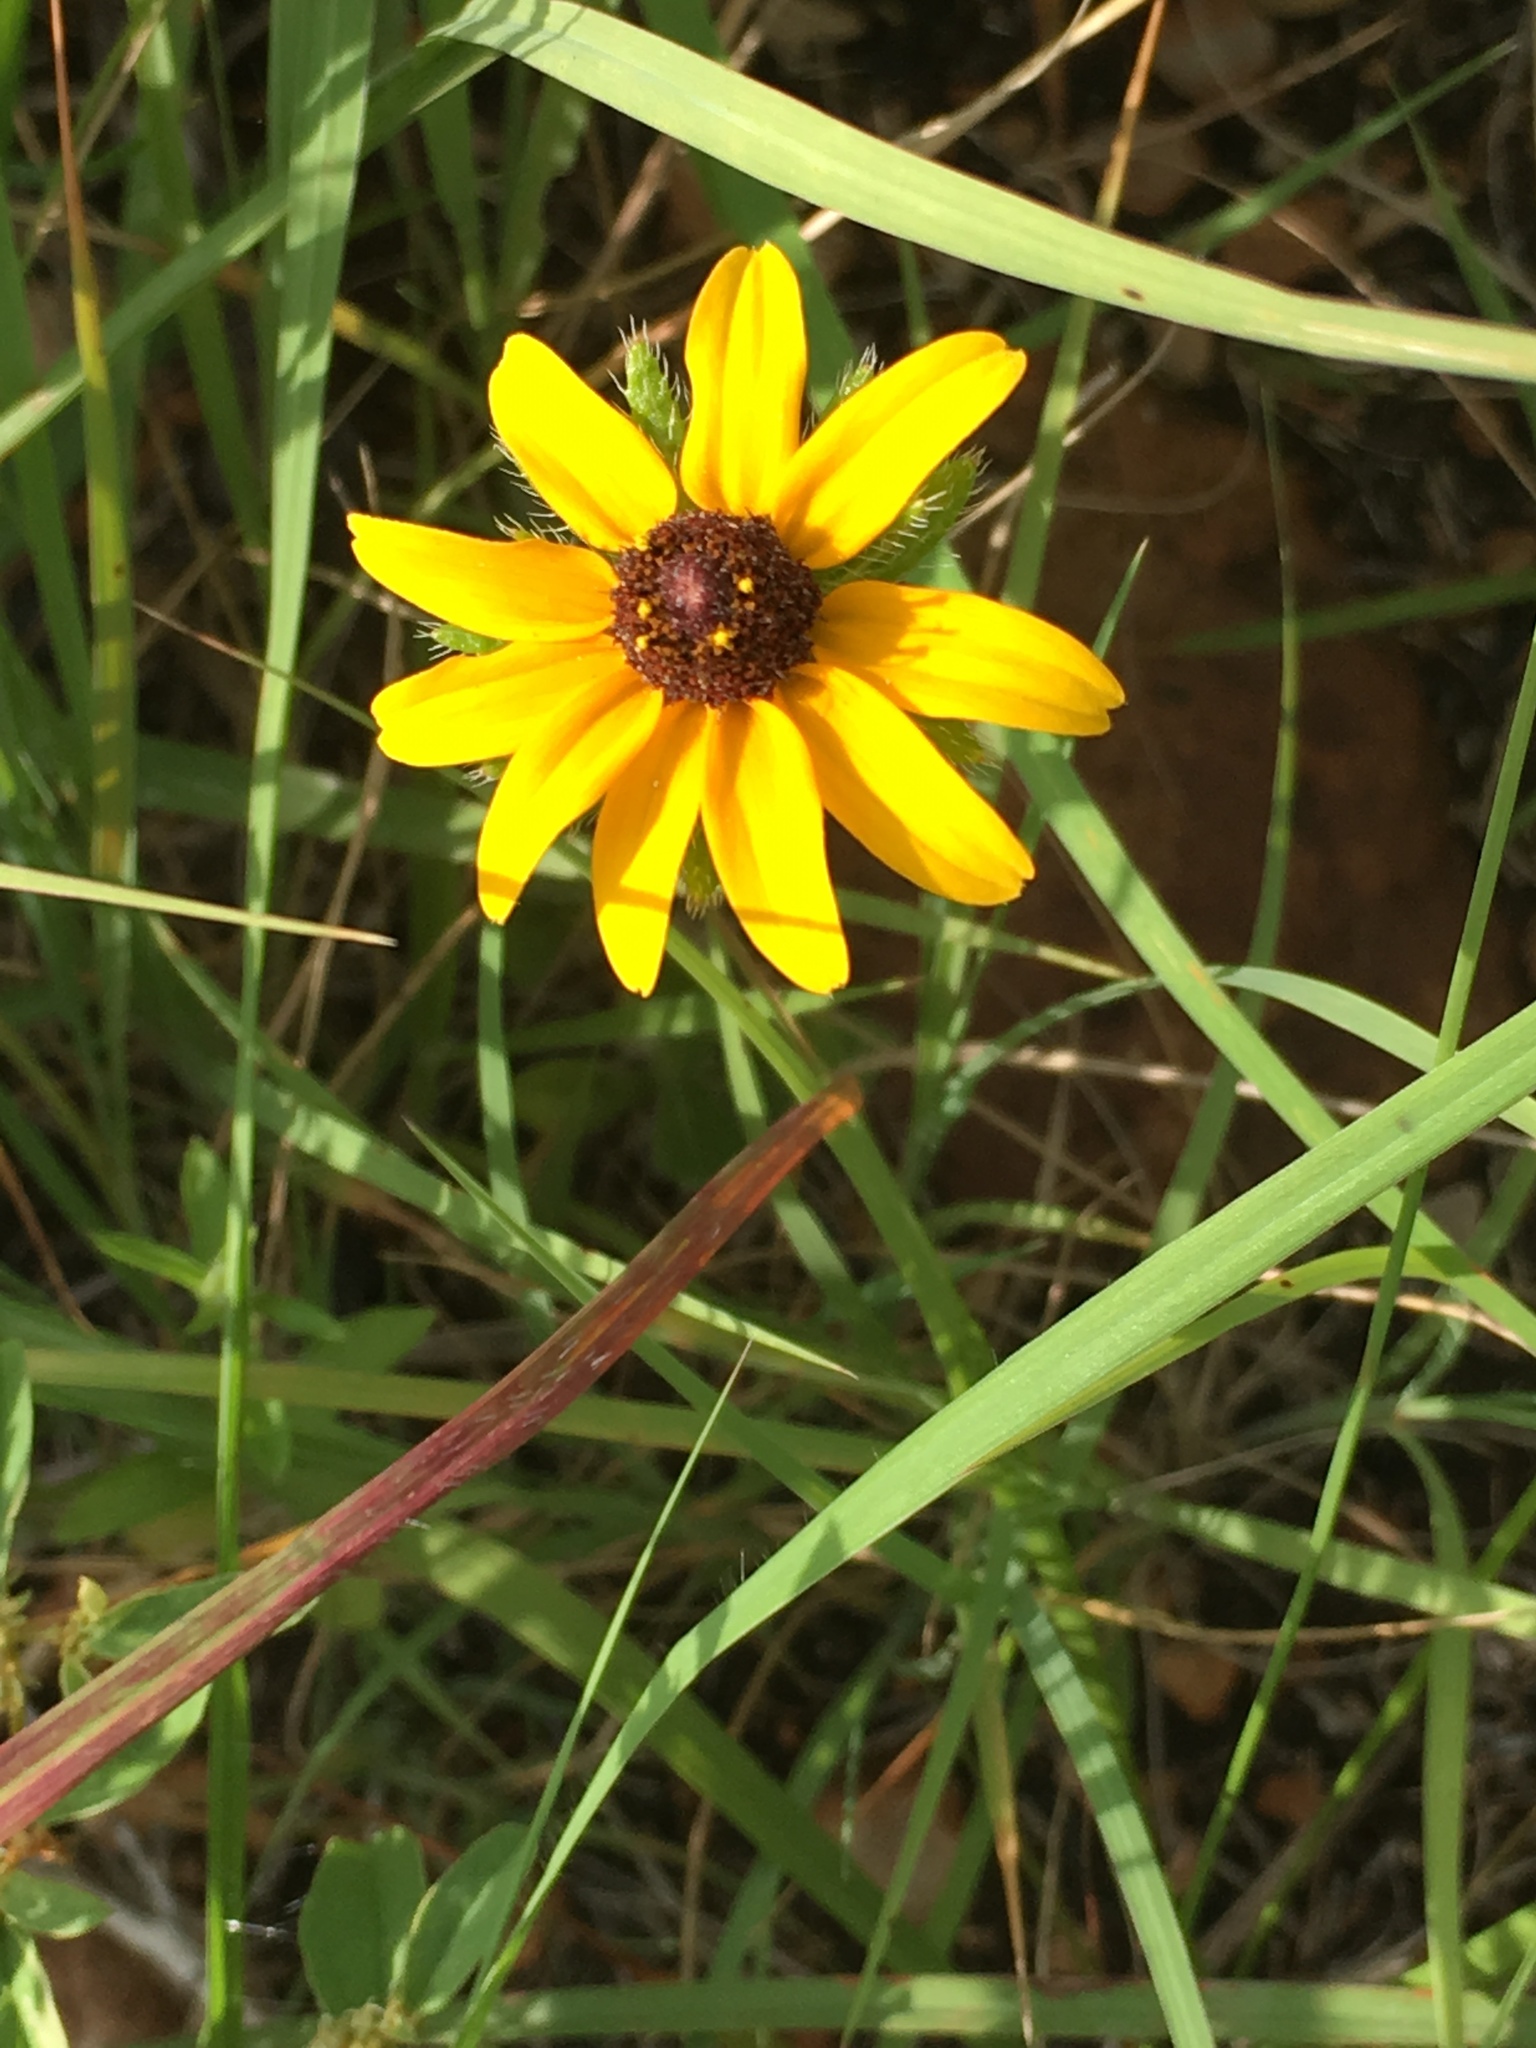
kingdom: Plantae
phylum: Tracheophyta
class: Magnoliopsida
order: Asterales
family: Asteraceae
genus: Rudbeckia
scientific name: Rudbeckia hirta
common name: Black-eyed-susan
